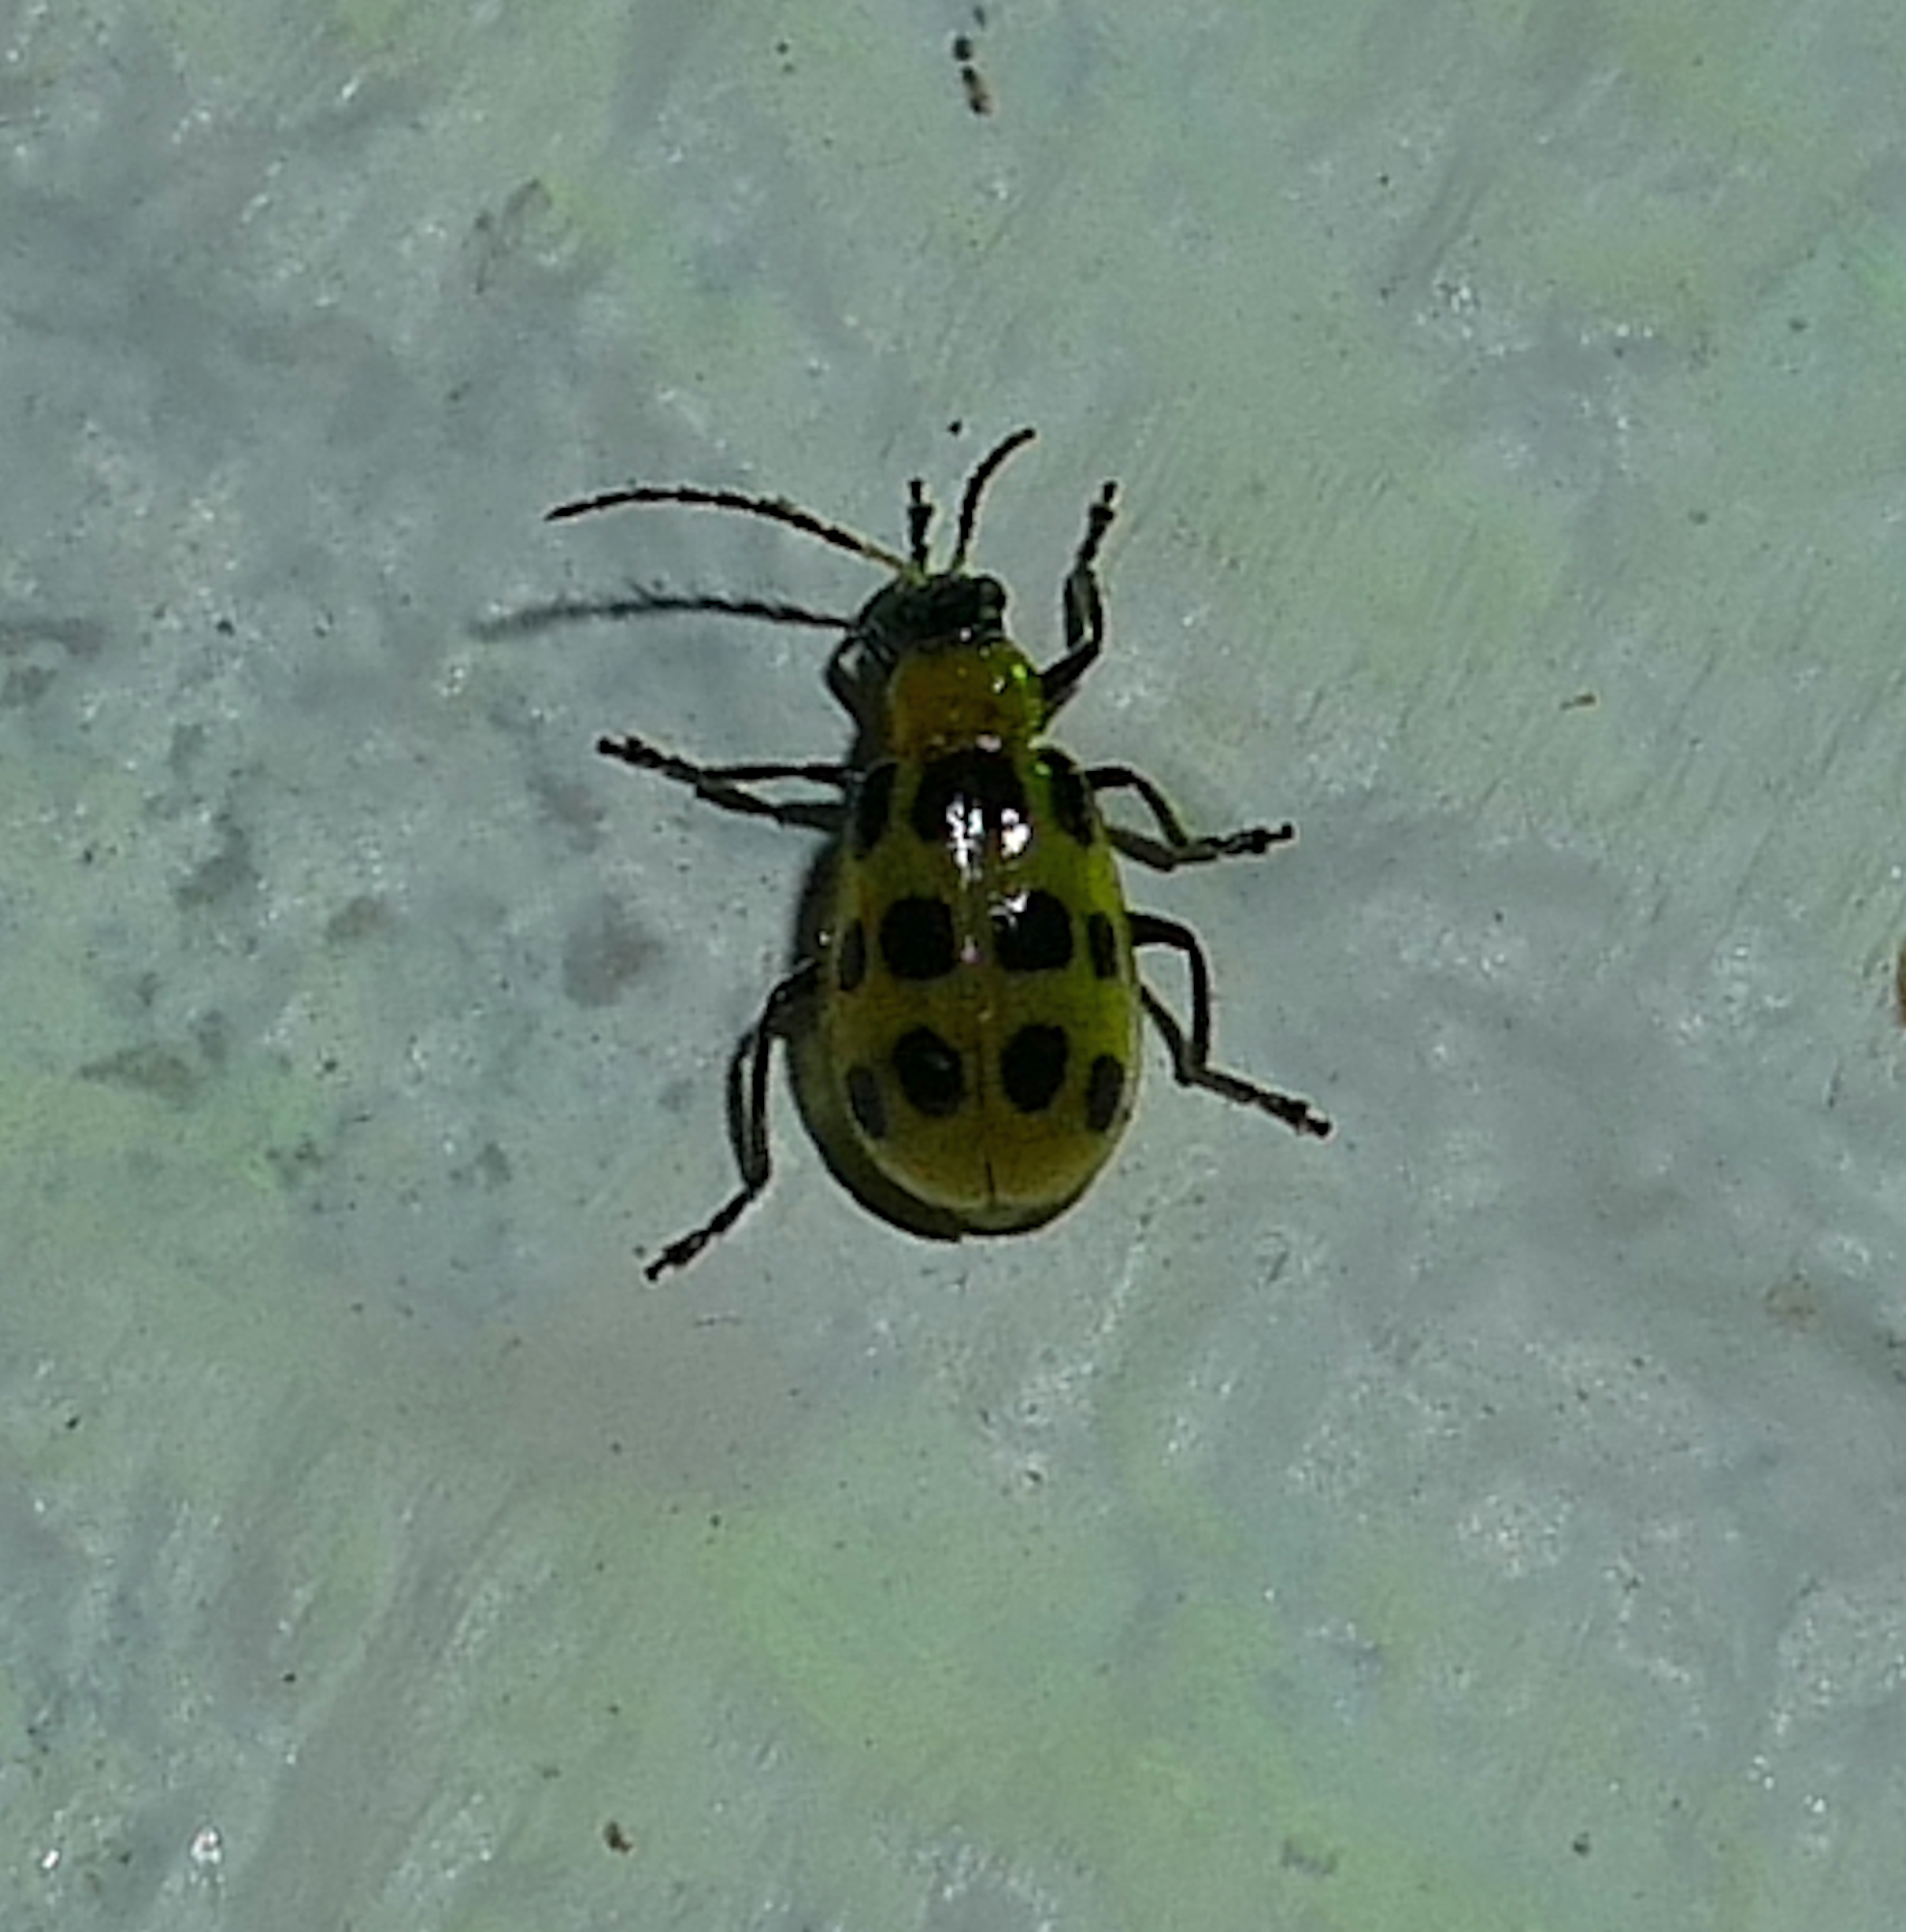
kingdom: Animalia
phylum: Arthropoda
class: Insecta
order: Coleoptera
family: Chrysomelidae
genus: Diabrotica
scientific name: Diabrotica undecimpunctata
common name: Spotted cucumber beetle
